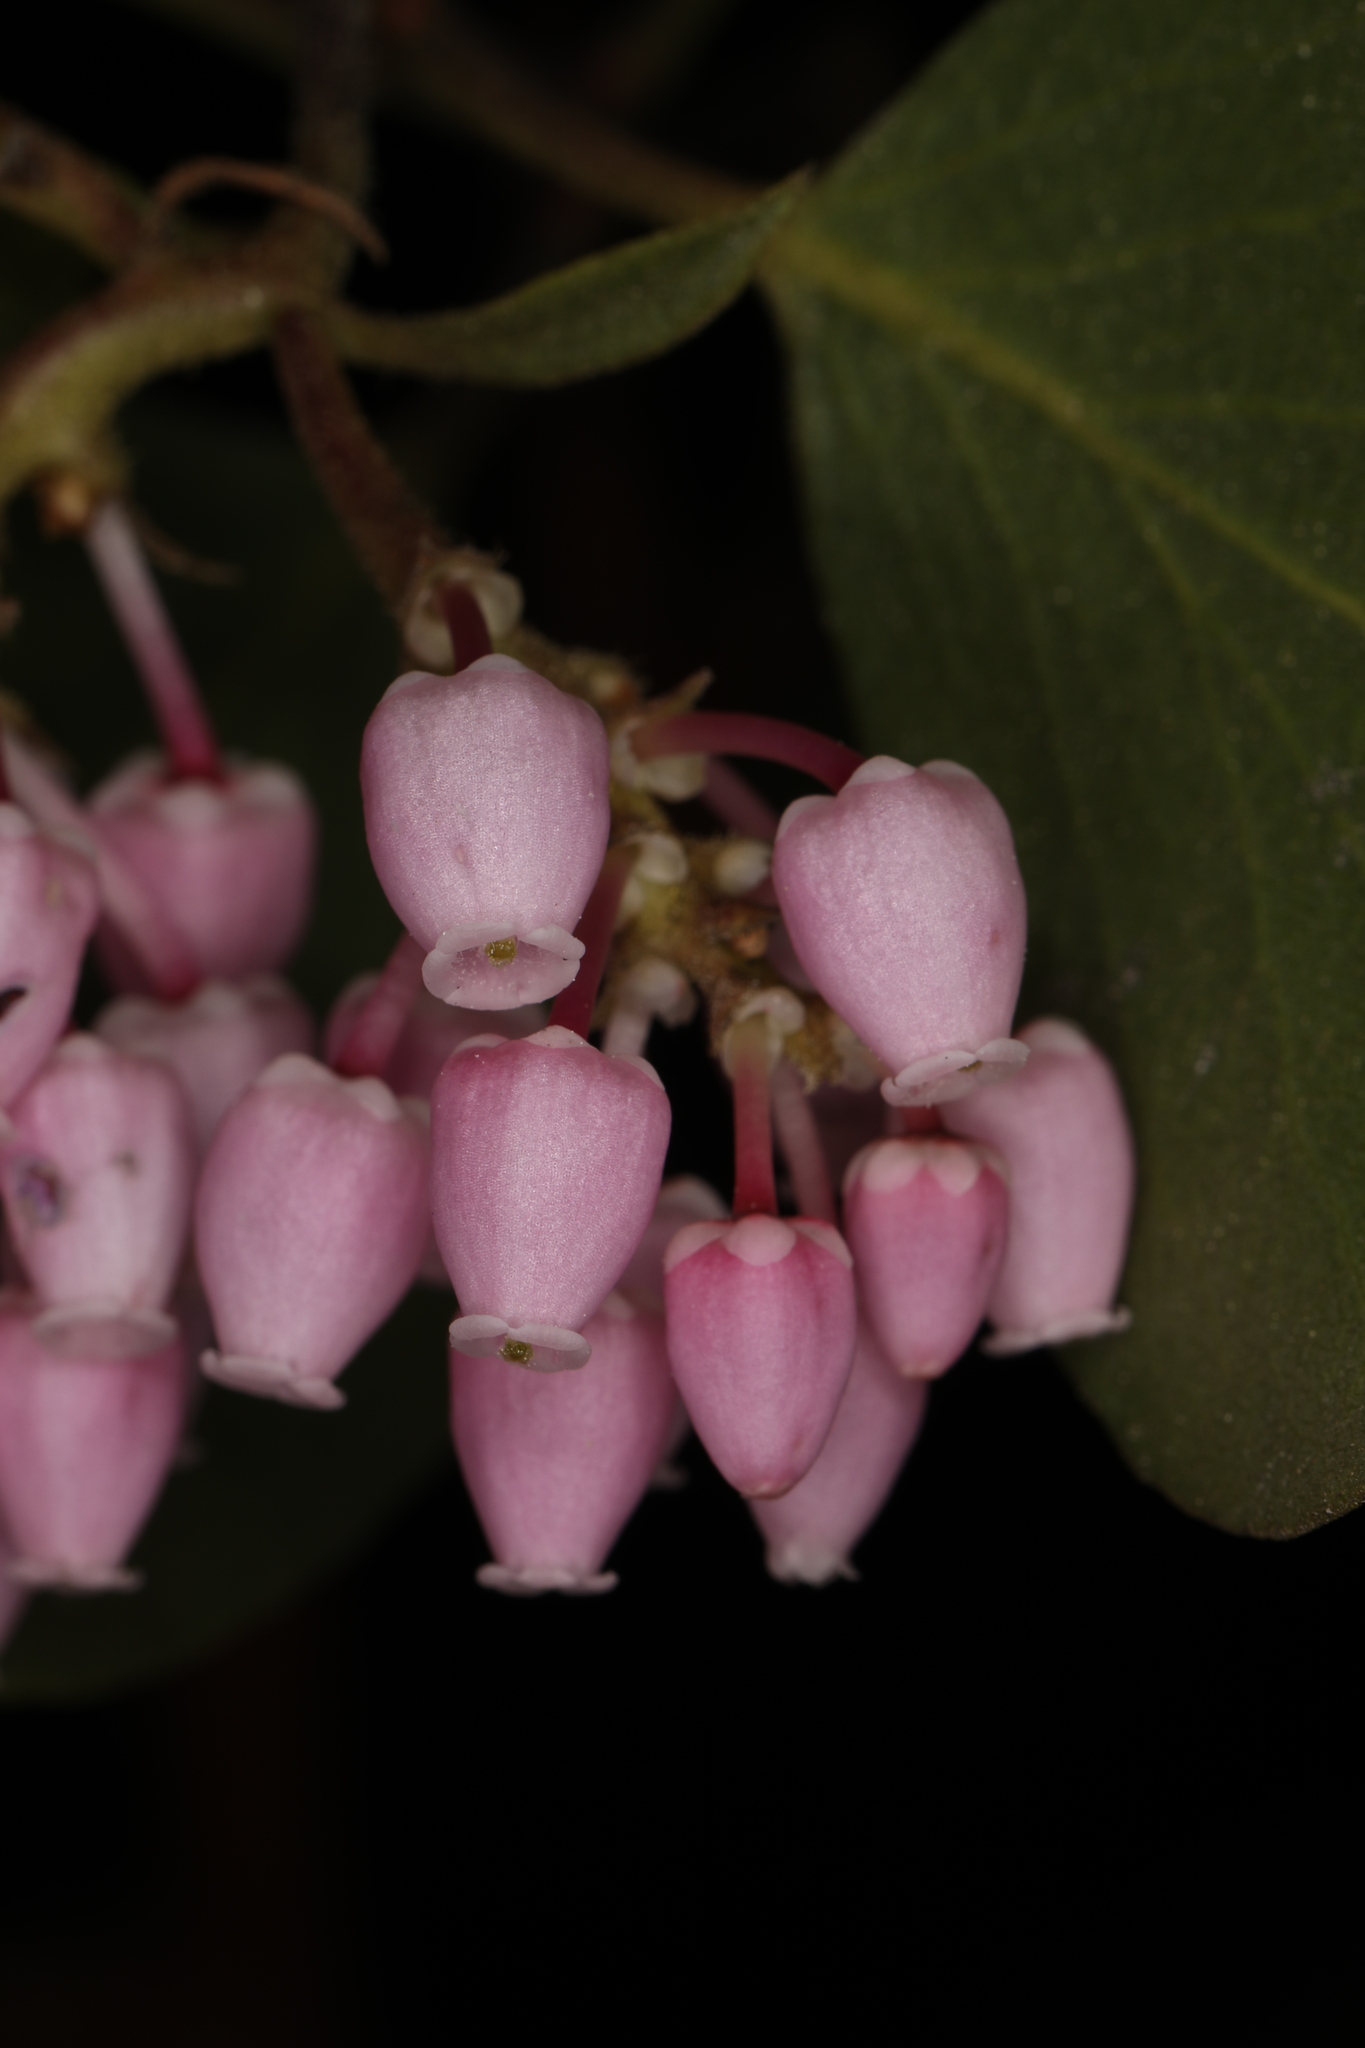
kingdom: Plantae
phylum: Tracheophyta
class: Magnoliopsida
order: Ericales
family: Ericaceae
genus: Arctostaphylos
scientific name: Arctostaphylos patula
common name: Green-leaf manzanita
